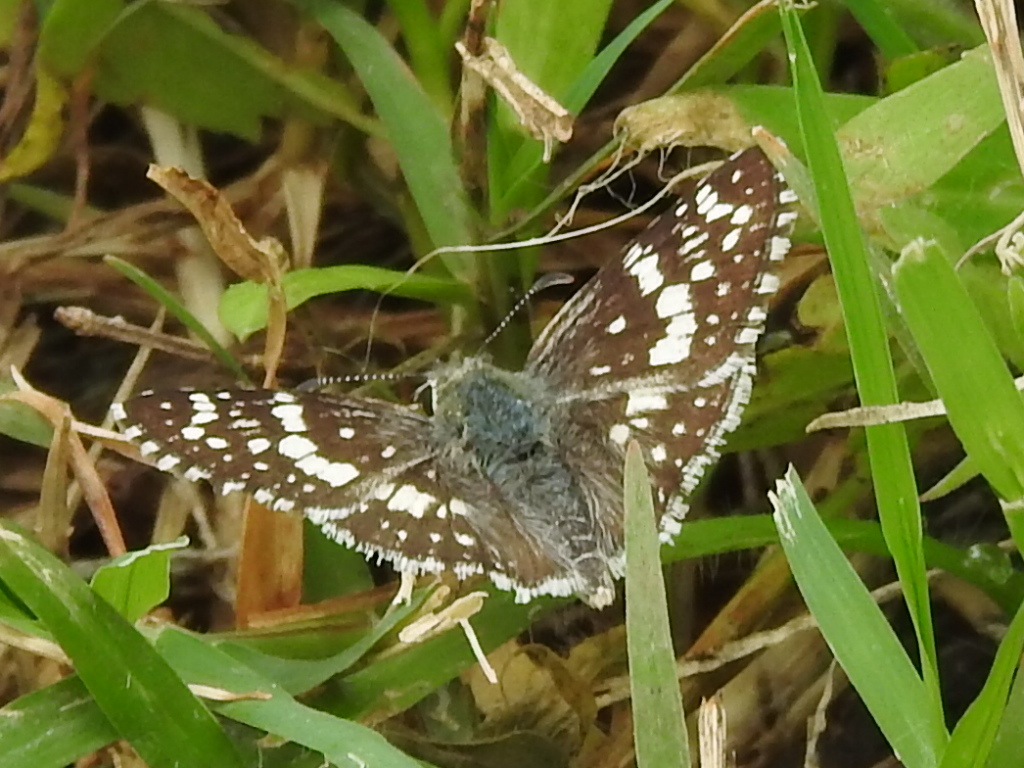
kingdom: Animalia
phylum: Arthropoda
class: Insecta
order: Lepidoptera
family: Hesperiidae
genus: Burnsius
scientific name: Burnsius communis
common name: Common checkered-skipper
